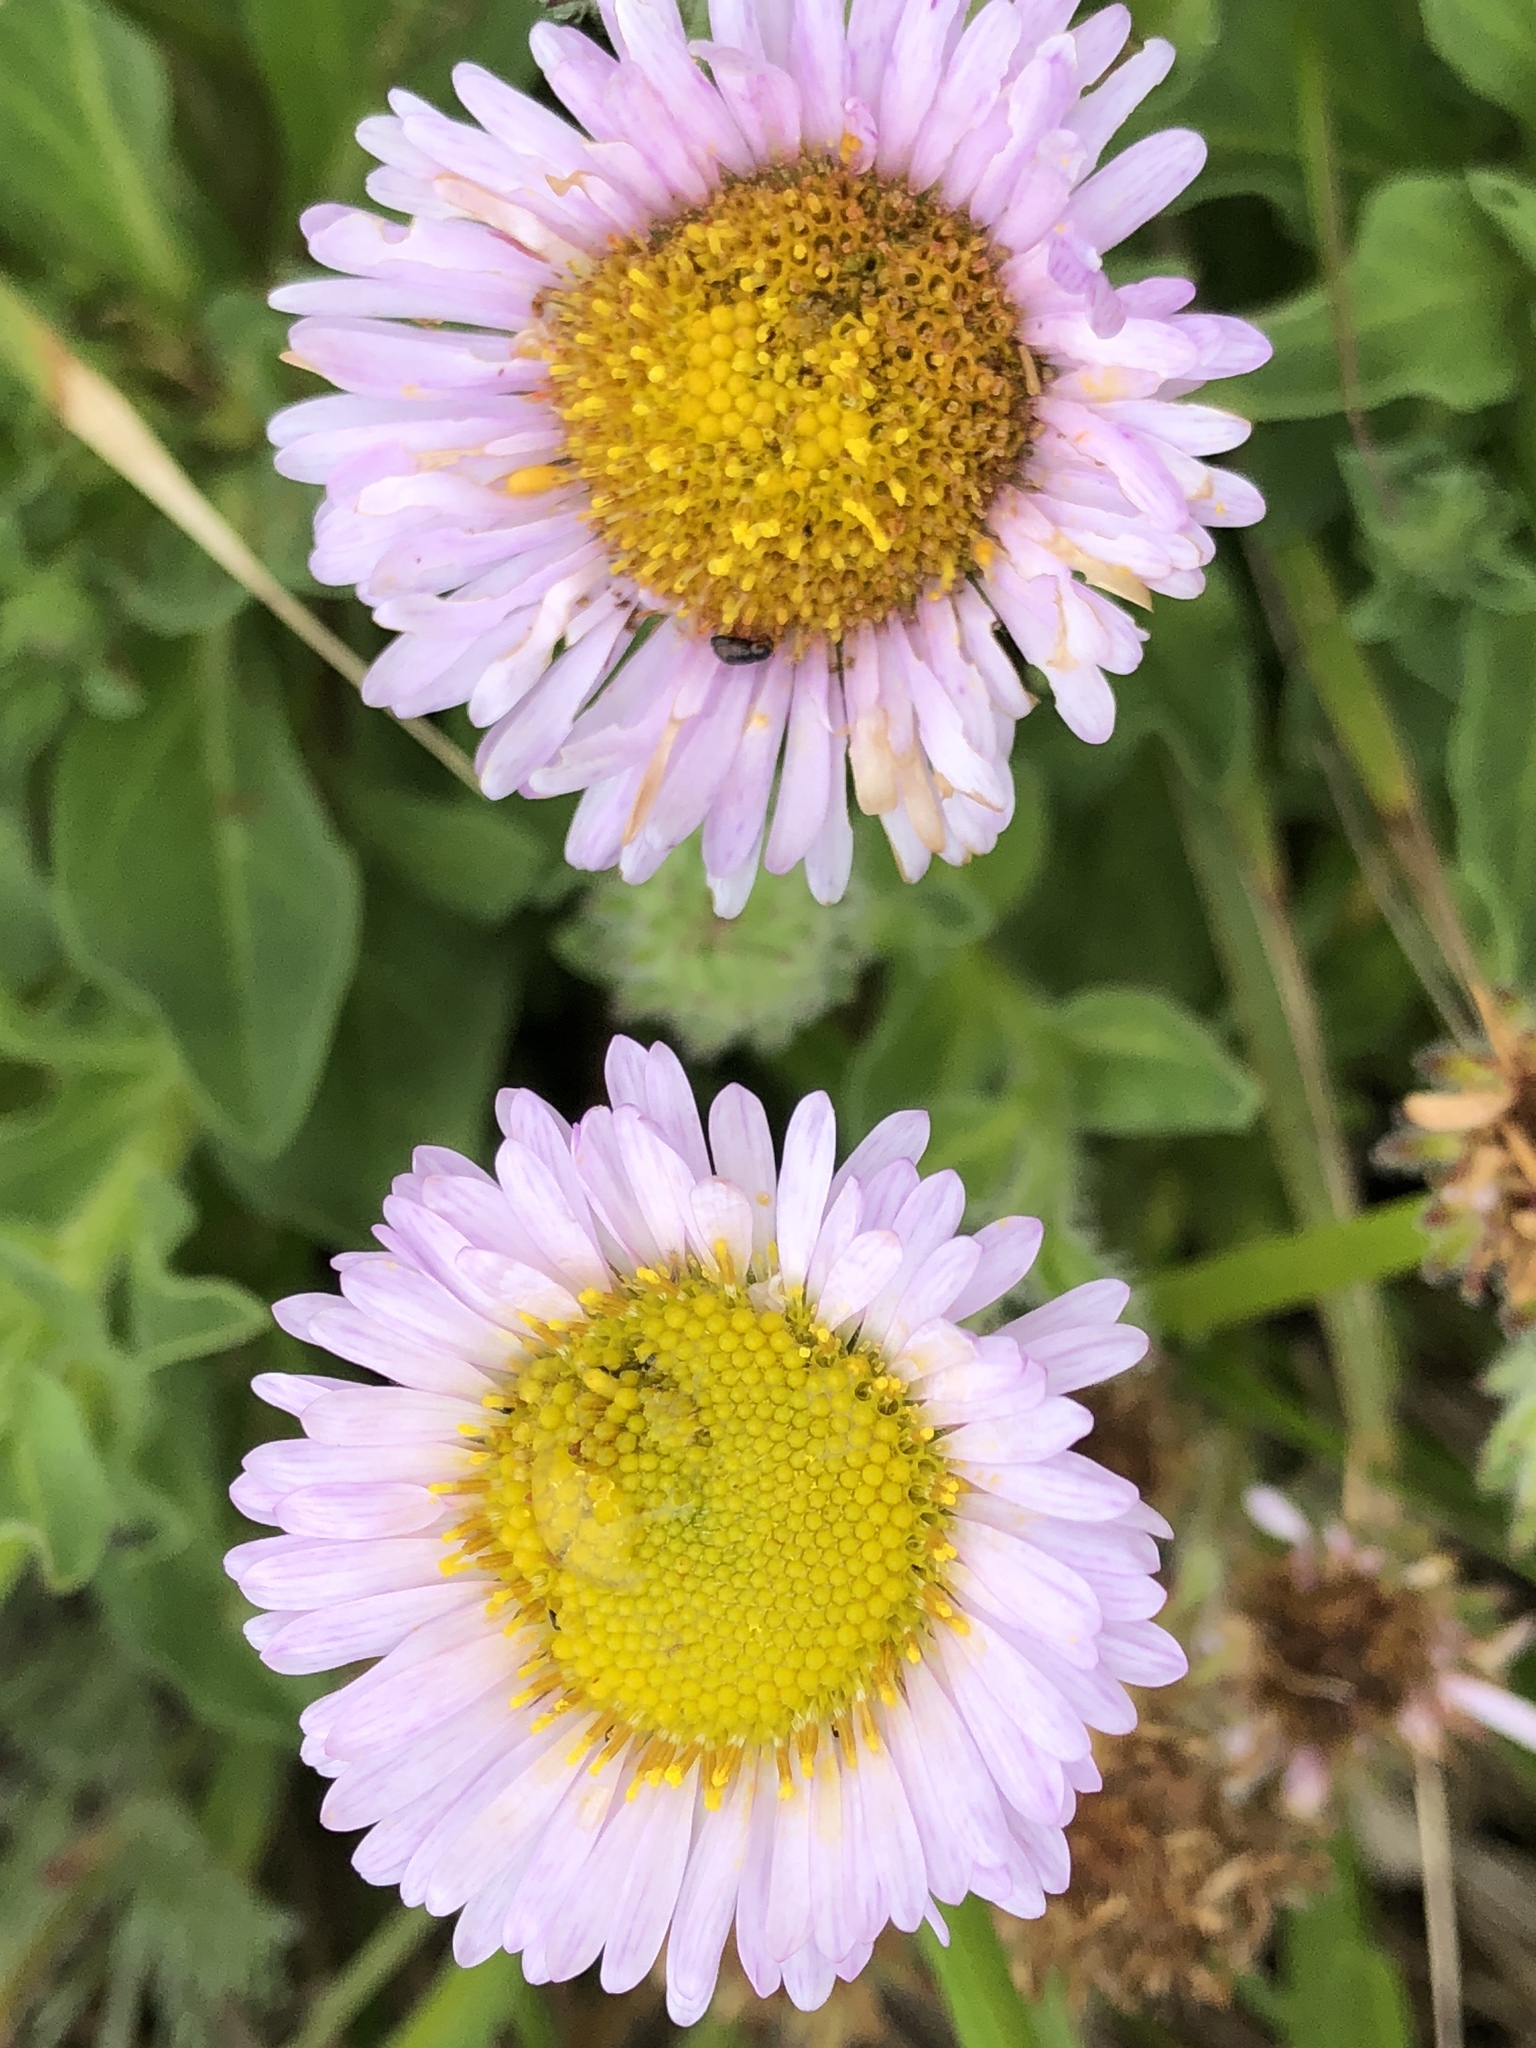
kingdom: Plantae
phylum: Tracheophyta
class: Magnoliopsida
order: Asterales
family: Asteraceae
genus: Erigeron
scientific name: Erigeron glaucus
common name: Seaside daisy
